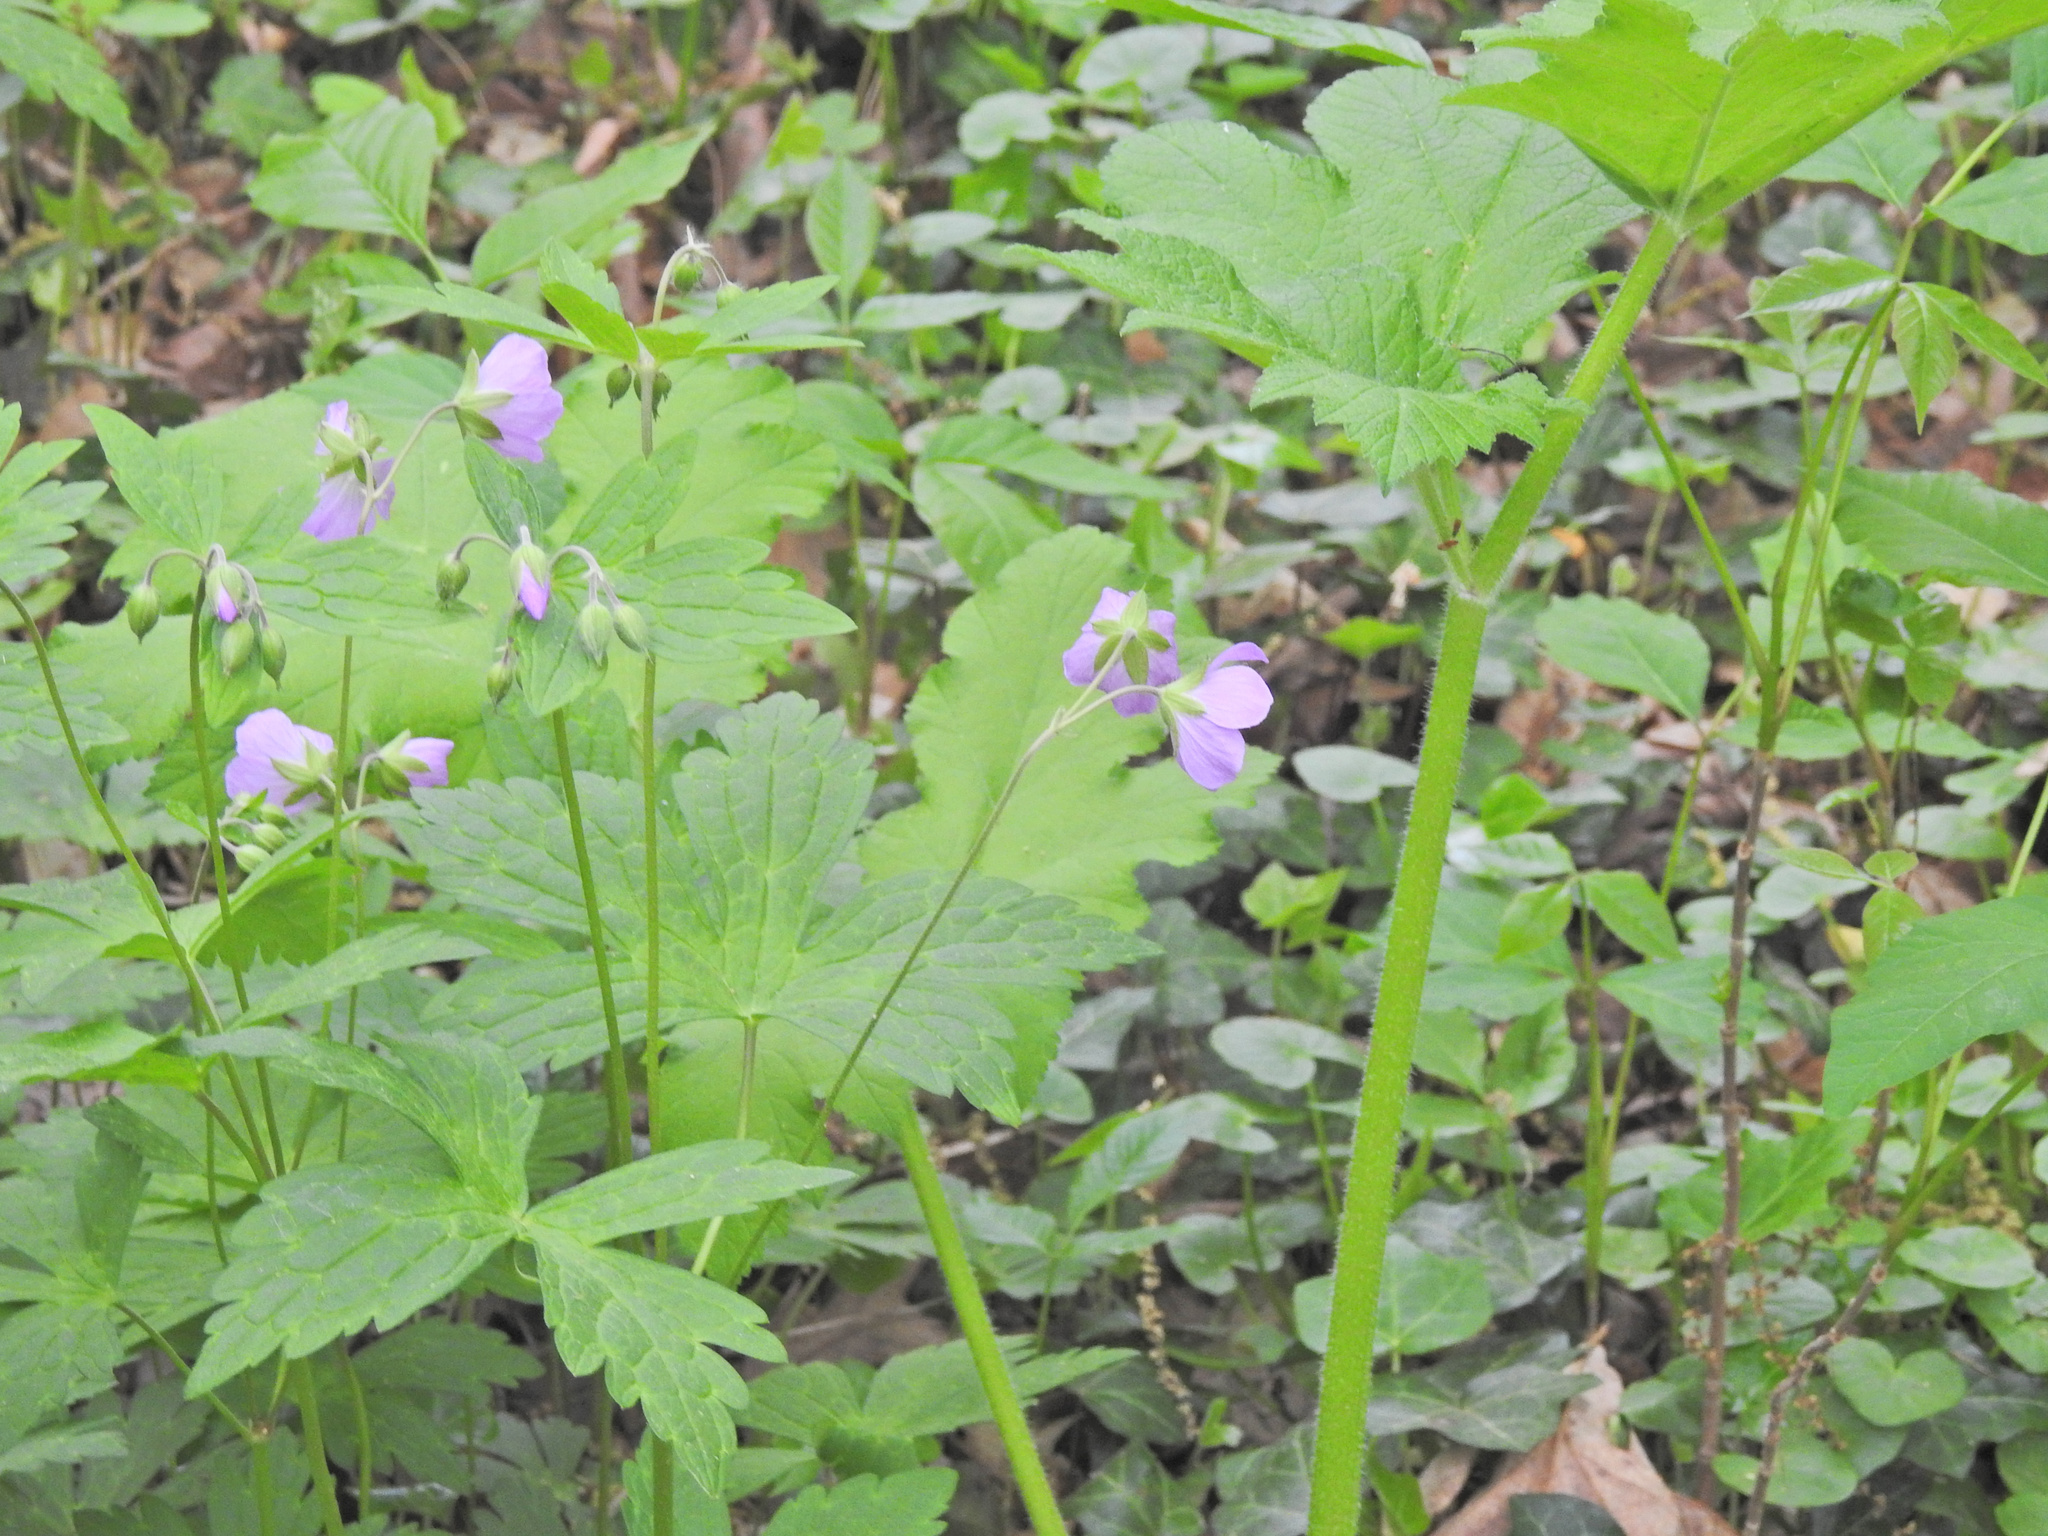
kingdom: Plantae
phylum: Tracheophyta
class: Magnoliopsida
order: Geraniales
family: Geraniaceae
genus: Geranium
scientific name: Geranium maculatum
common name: Spotted geranium
